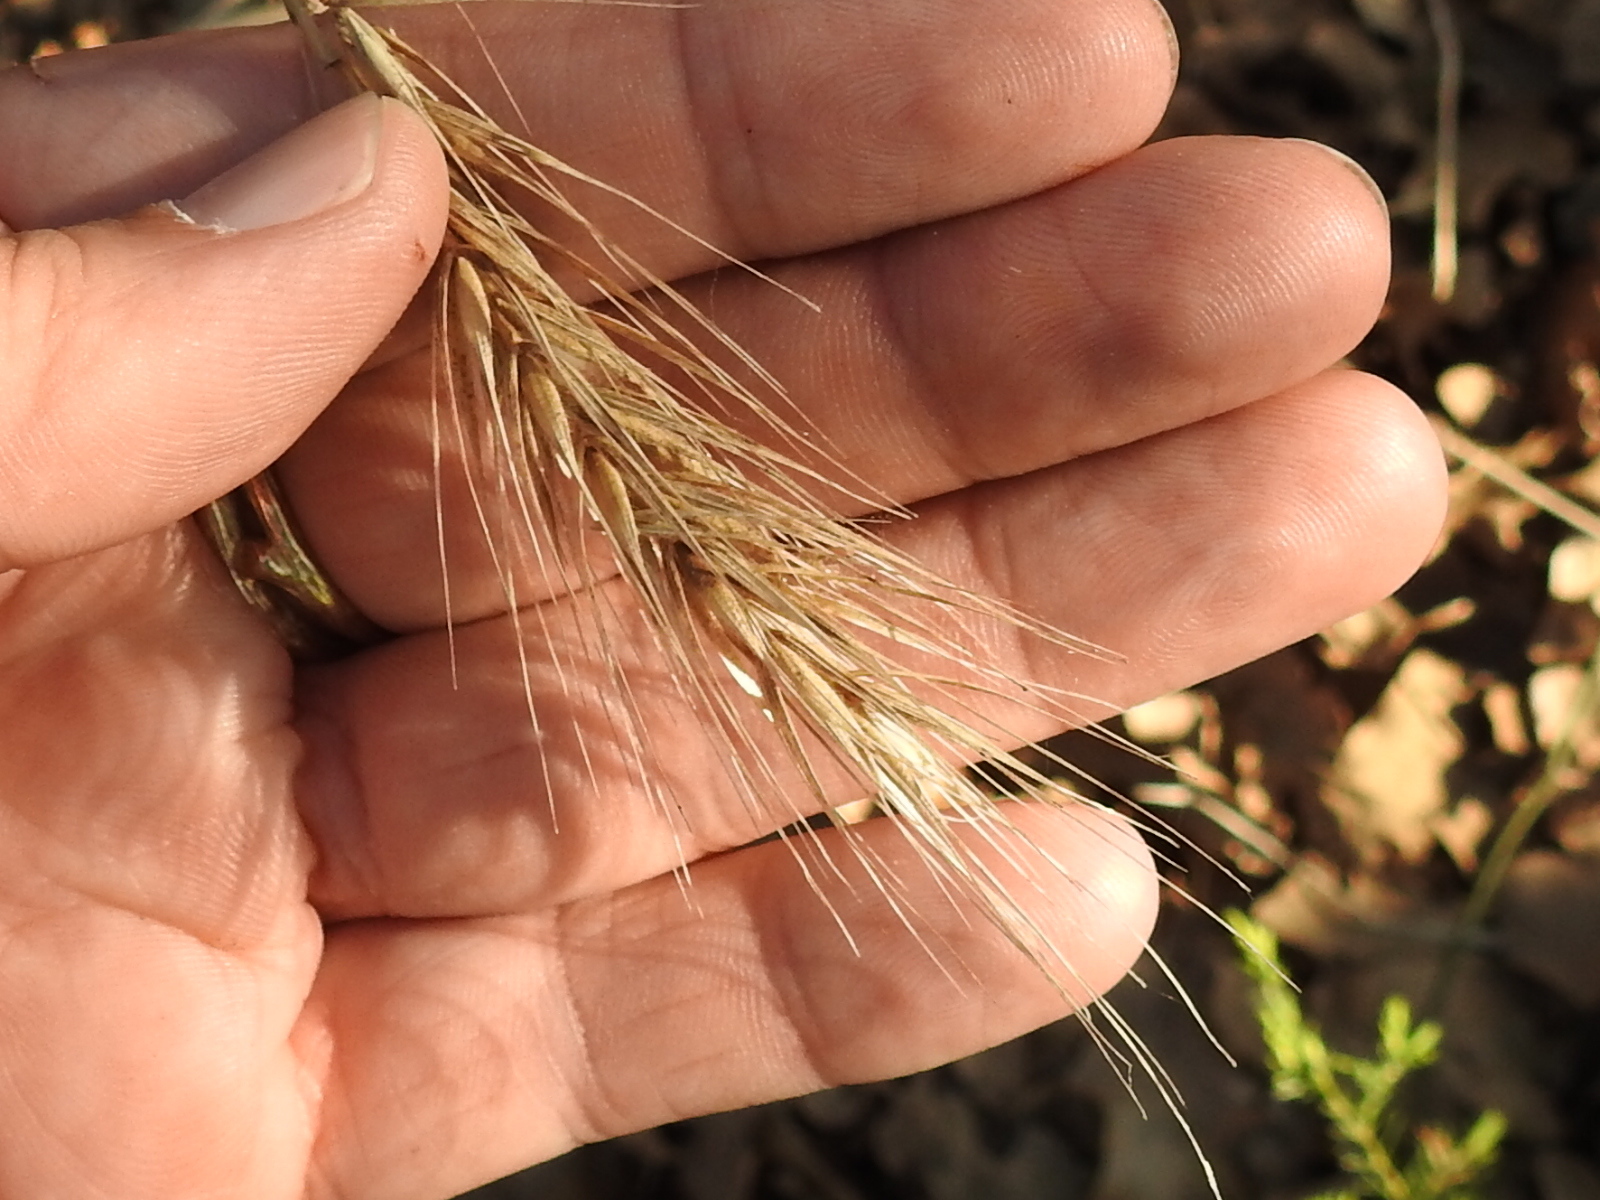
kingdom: Plantae
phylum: Tracheophyta
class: Liliopsida
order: Poales
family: Poaceae
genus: Elymus
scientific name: Elymus canadensis
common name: Canada wild rye
